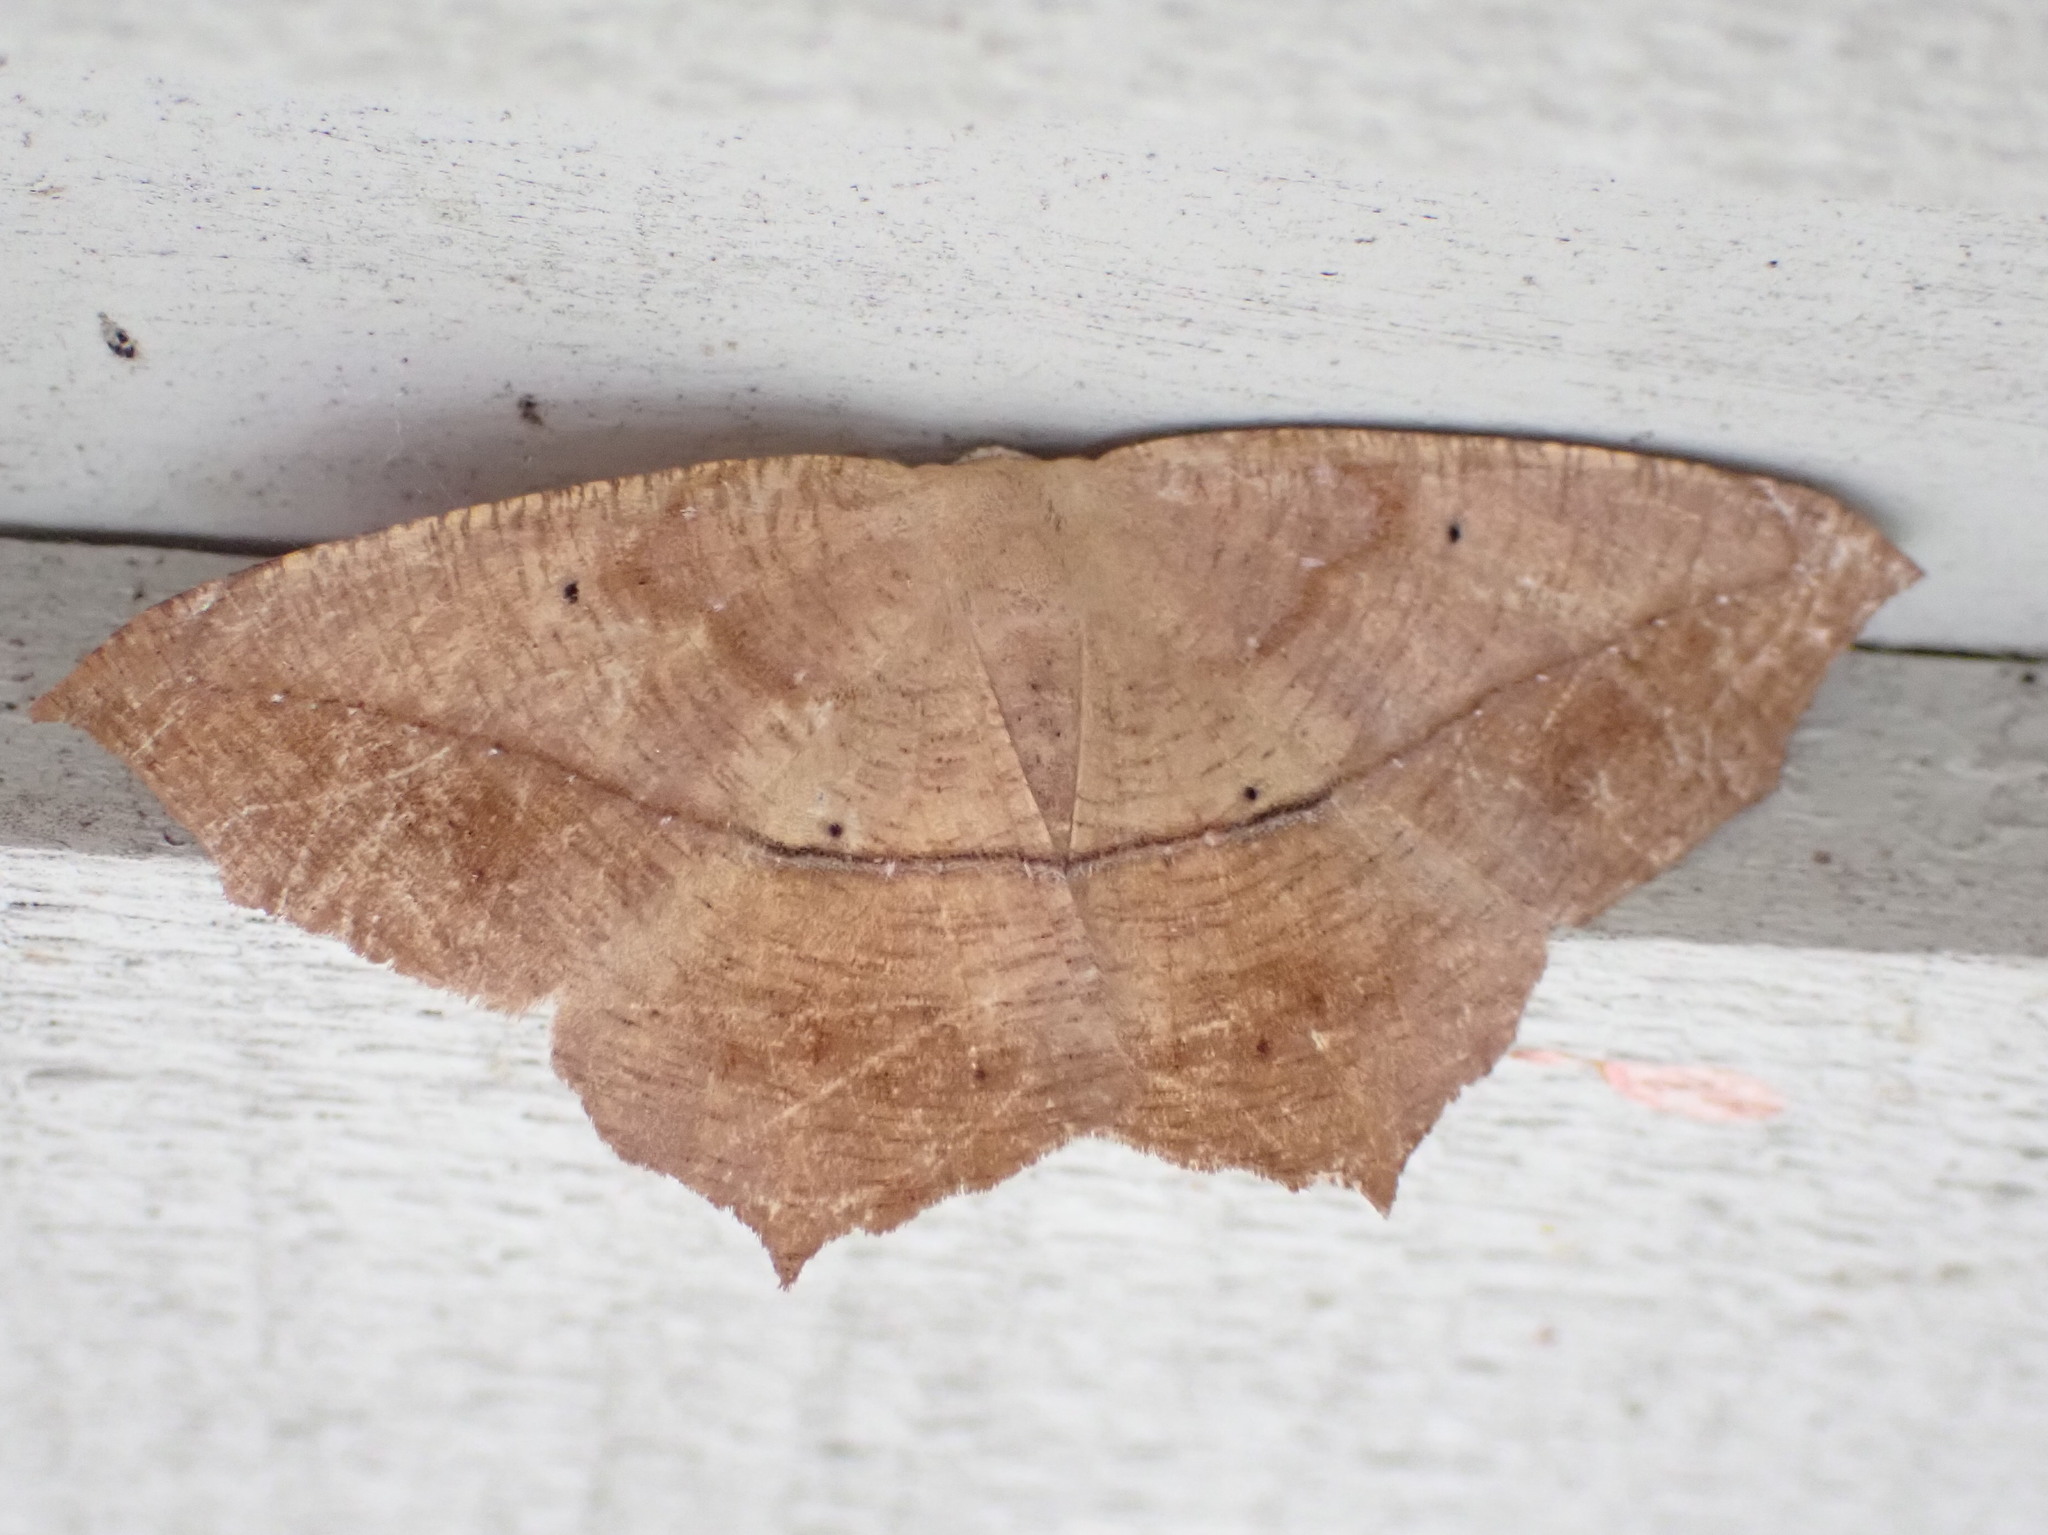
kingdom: Animalia
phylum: Arthropoda
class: Insecta
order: Lepidoptera
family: Geometridae
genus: Prochoerodes
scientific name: Prochoerodes lineola
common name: Large maple spanworm
